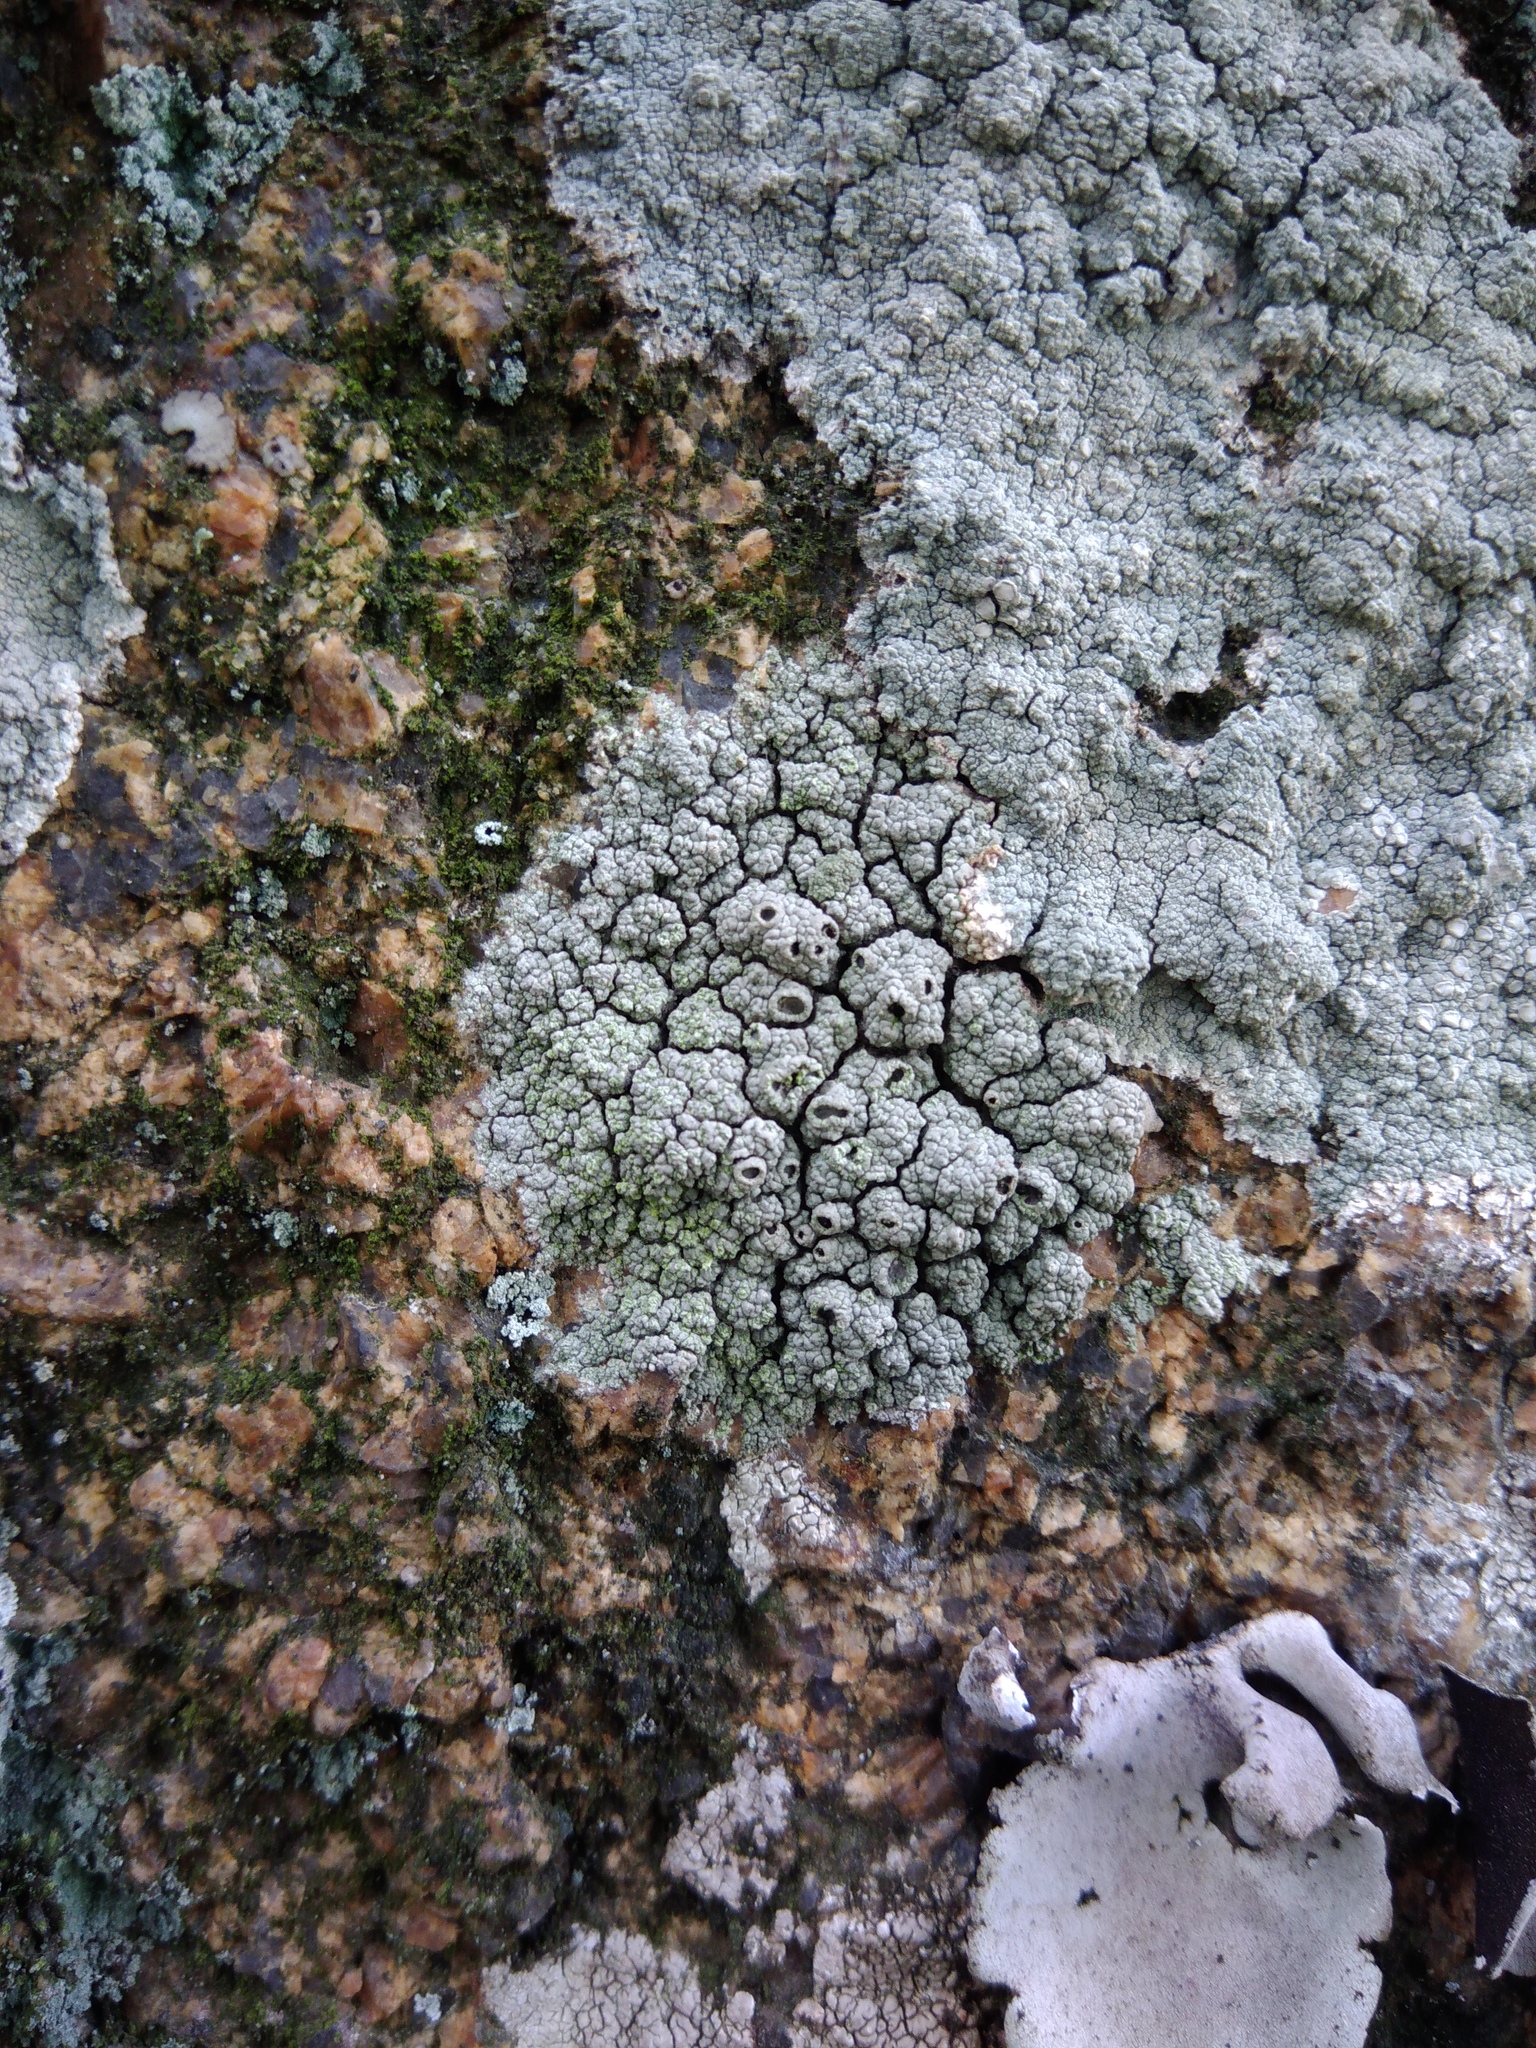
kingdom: Fungi
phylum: Ascomycota
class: Lecanoromycetes
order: Ostropales
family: Graphidaceae
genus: Diploschistes
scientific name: Diploschistes scruposus
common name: Crater lichen
